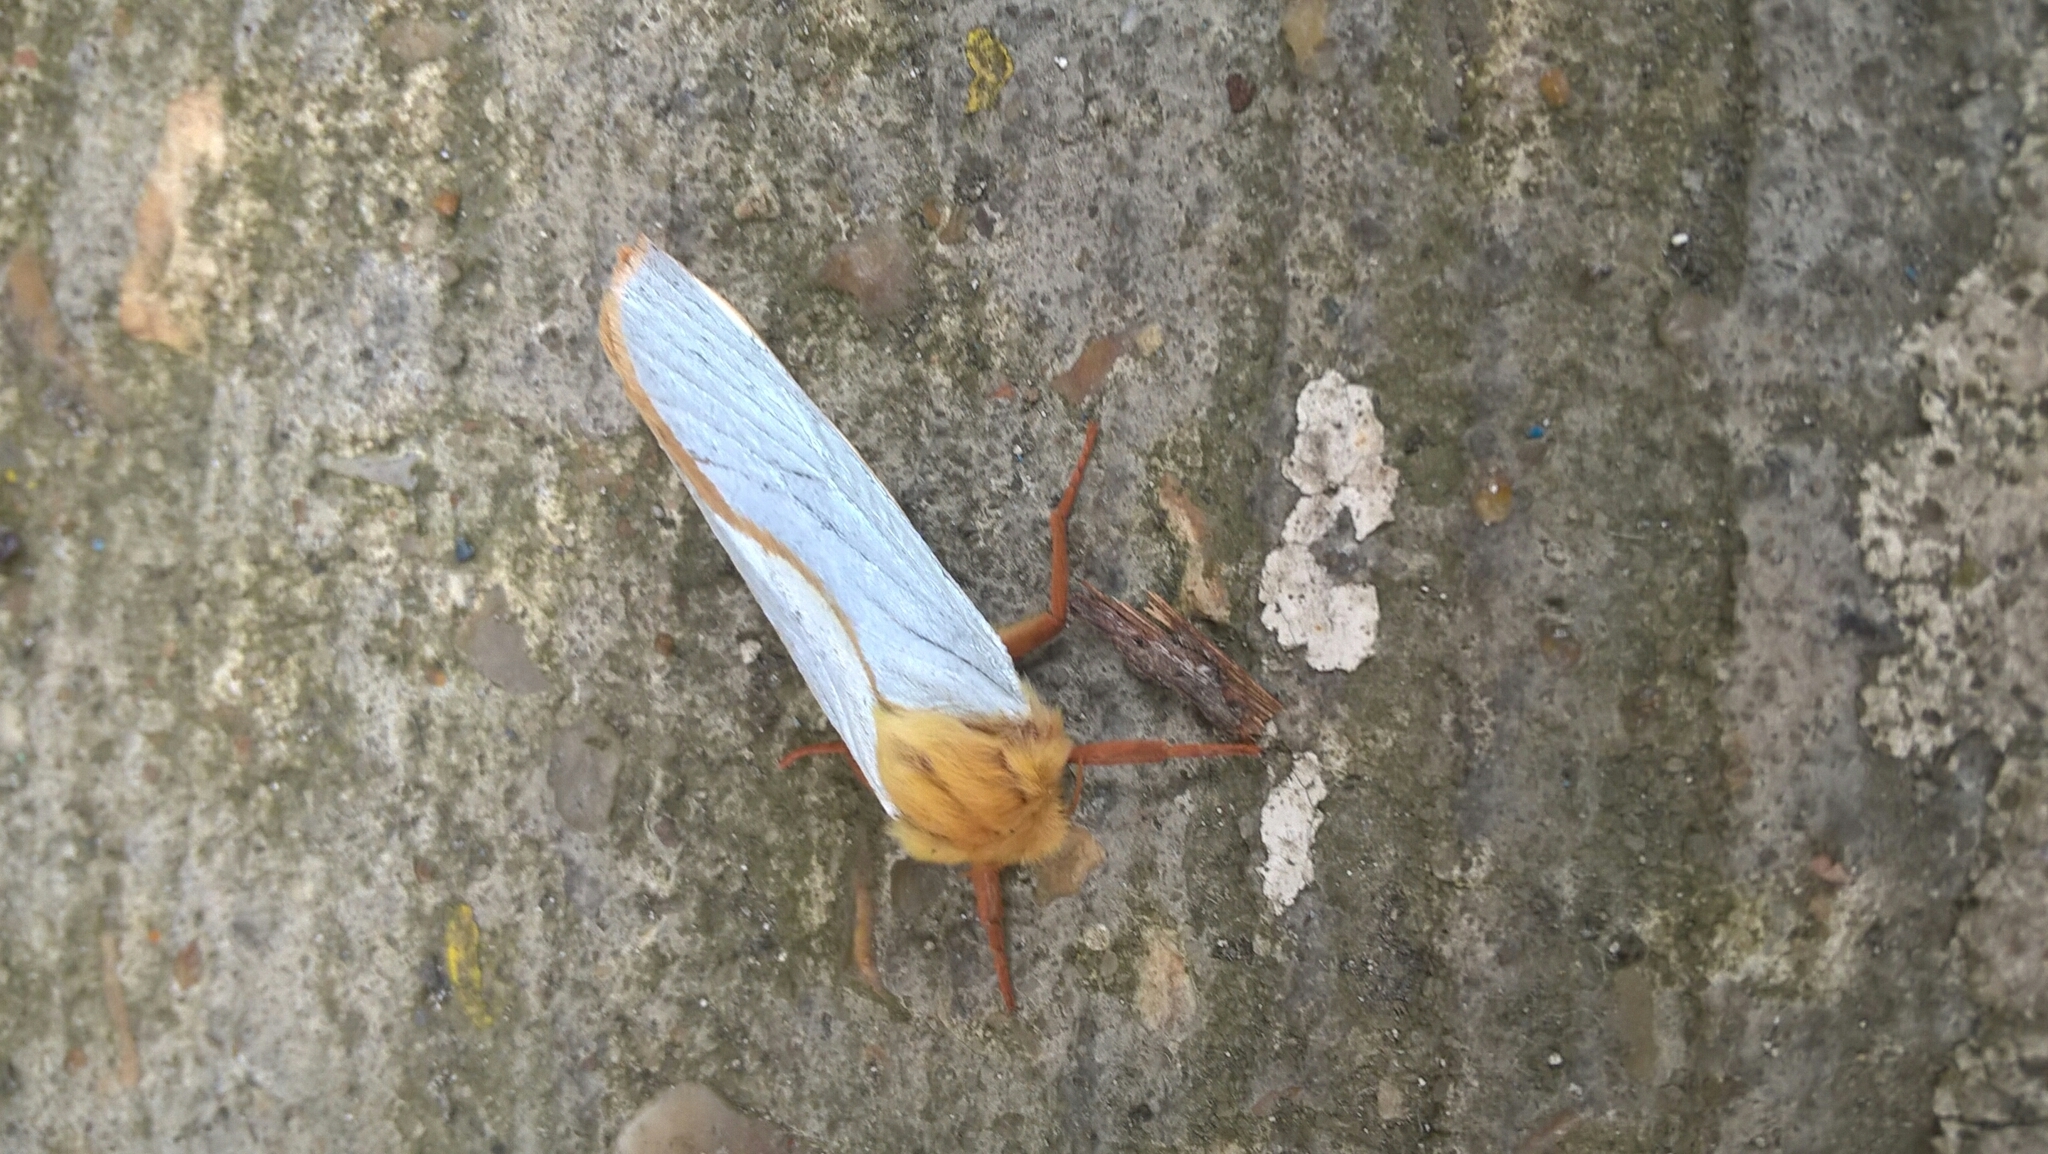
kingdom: Animalia
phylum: Arthropoda
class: Insecta
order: Lepidoptera
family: Hepialidae
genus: Hepialus
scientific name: Hepialus humuli
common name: Ghost moth
